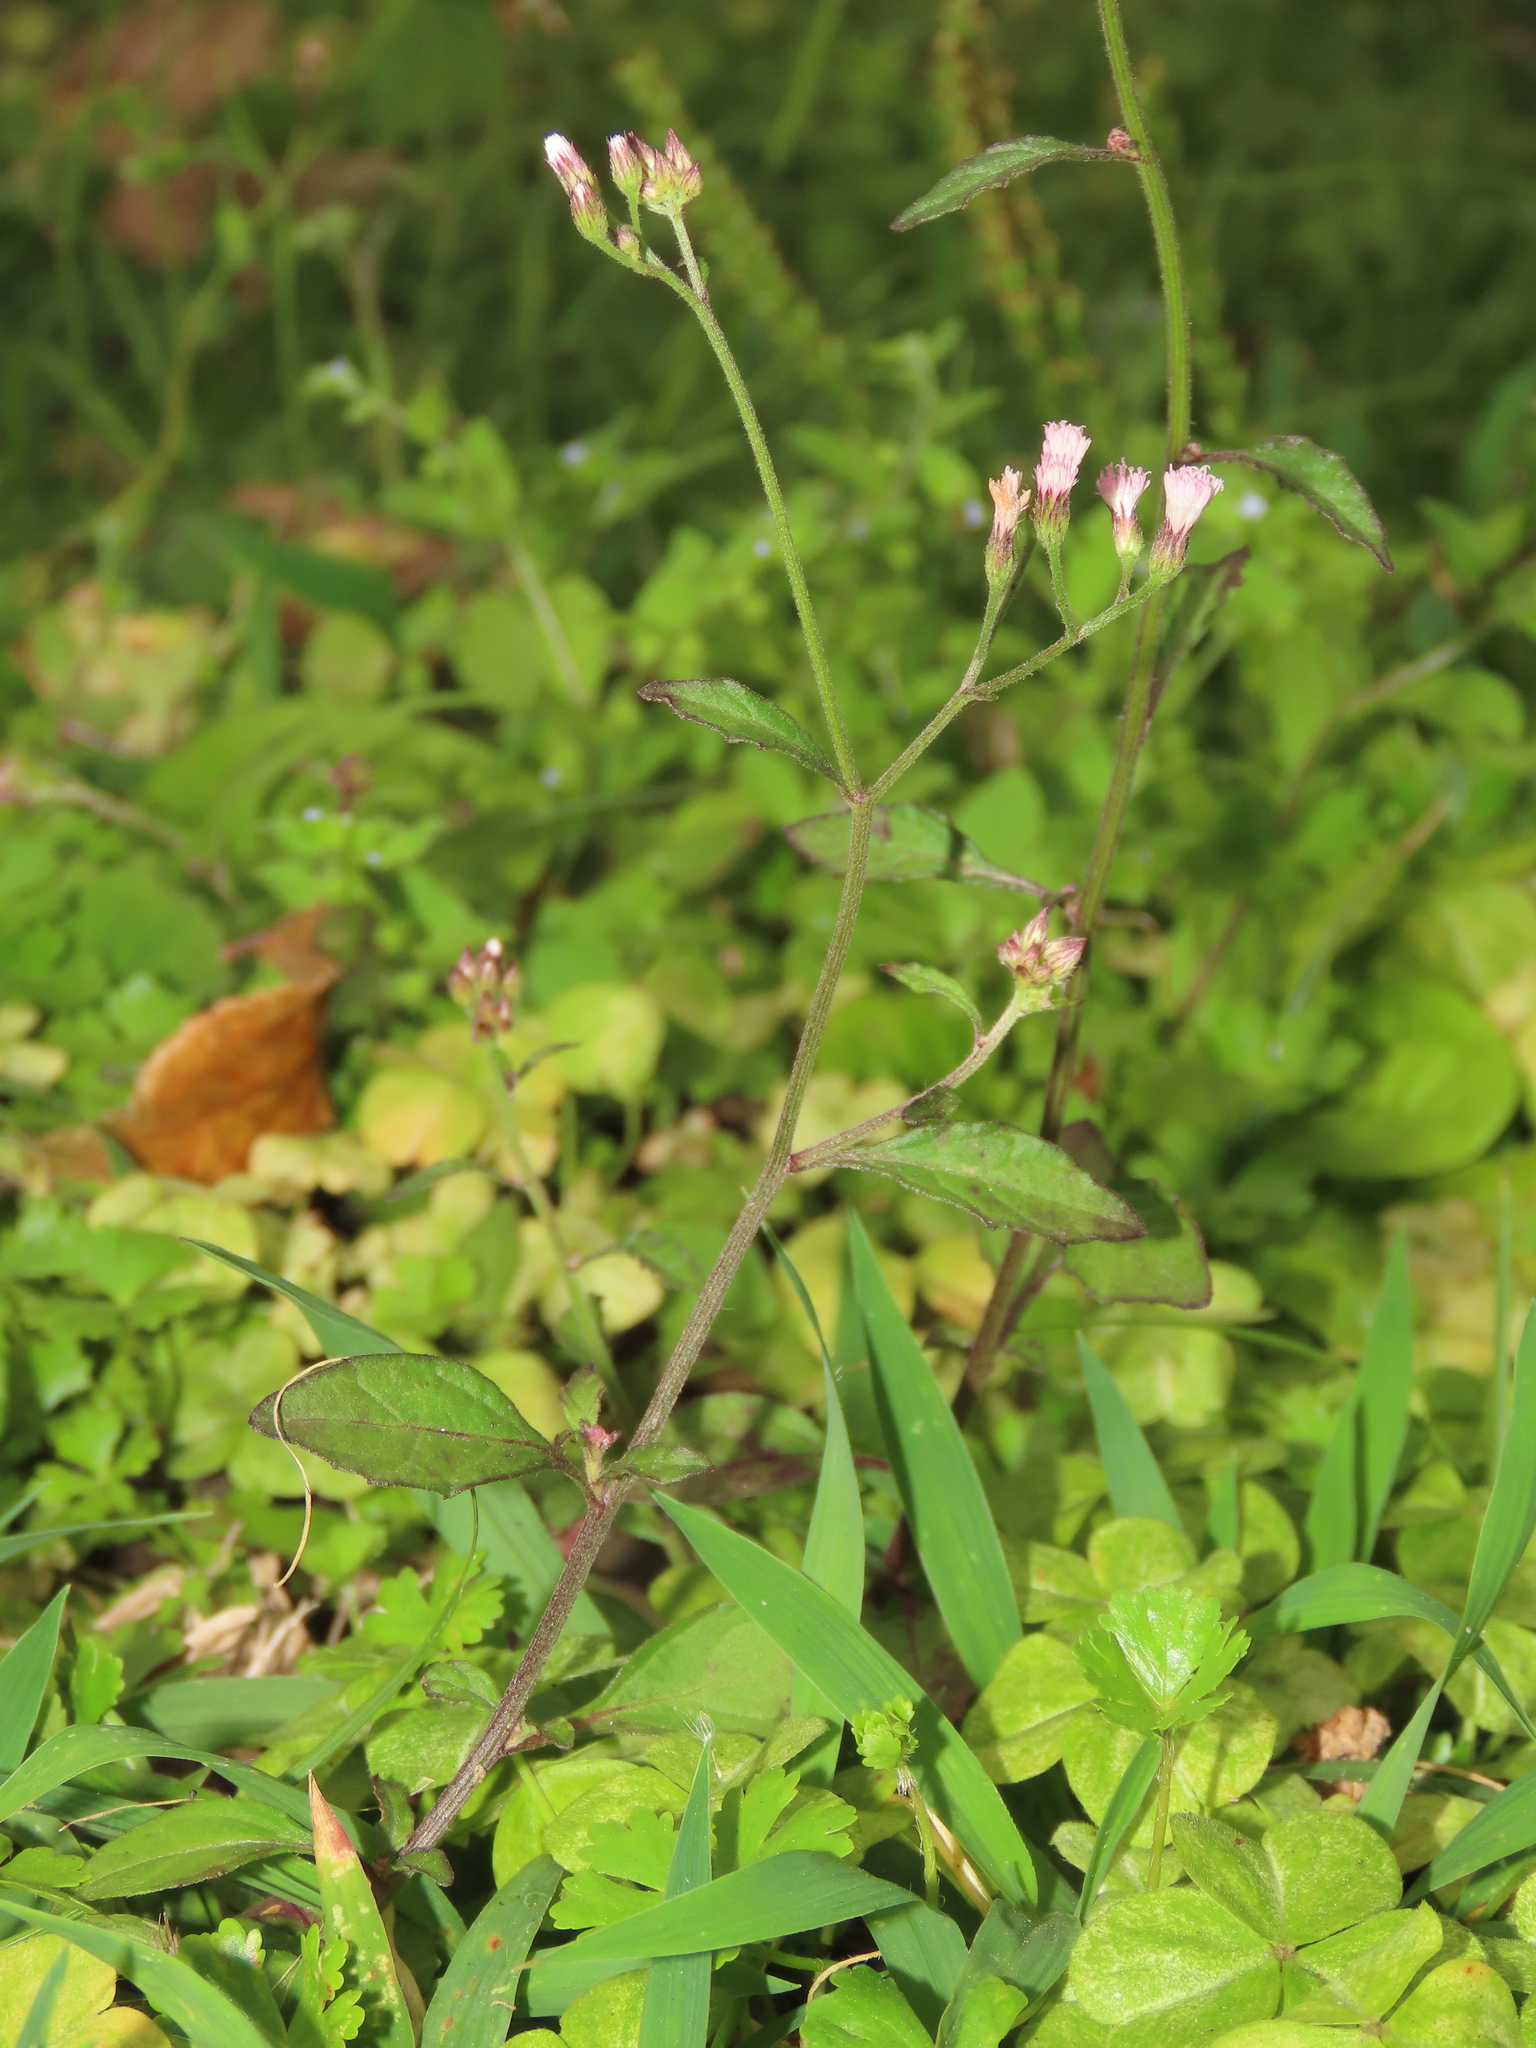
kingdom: Plantae
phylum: Tracheophyta
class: Magnoliopsida
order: Asterales
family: Asteraceae
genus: Cyanthillium
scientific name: Cyanthillium cinereum
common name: Little ironweed
